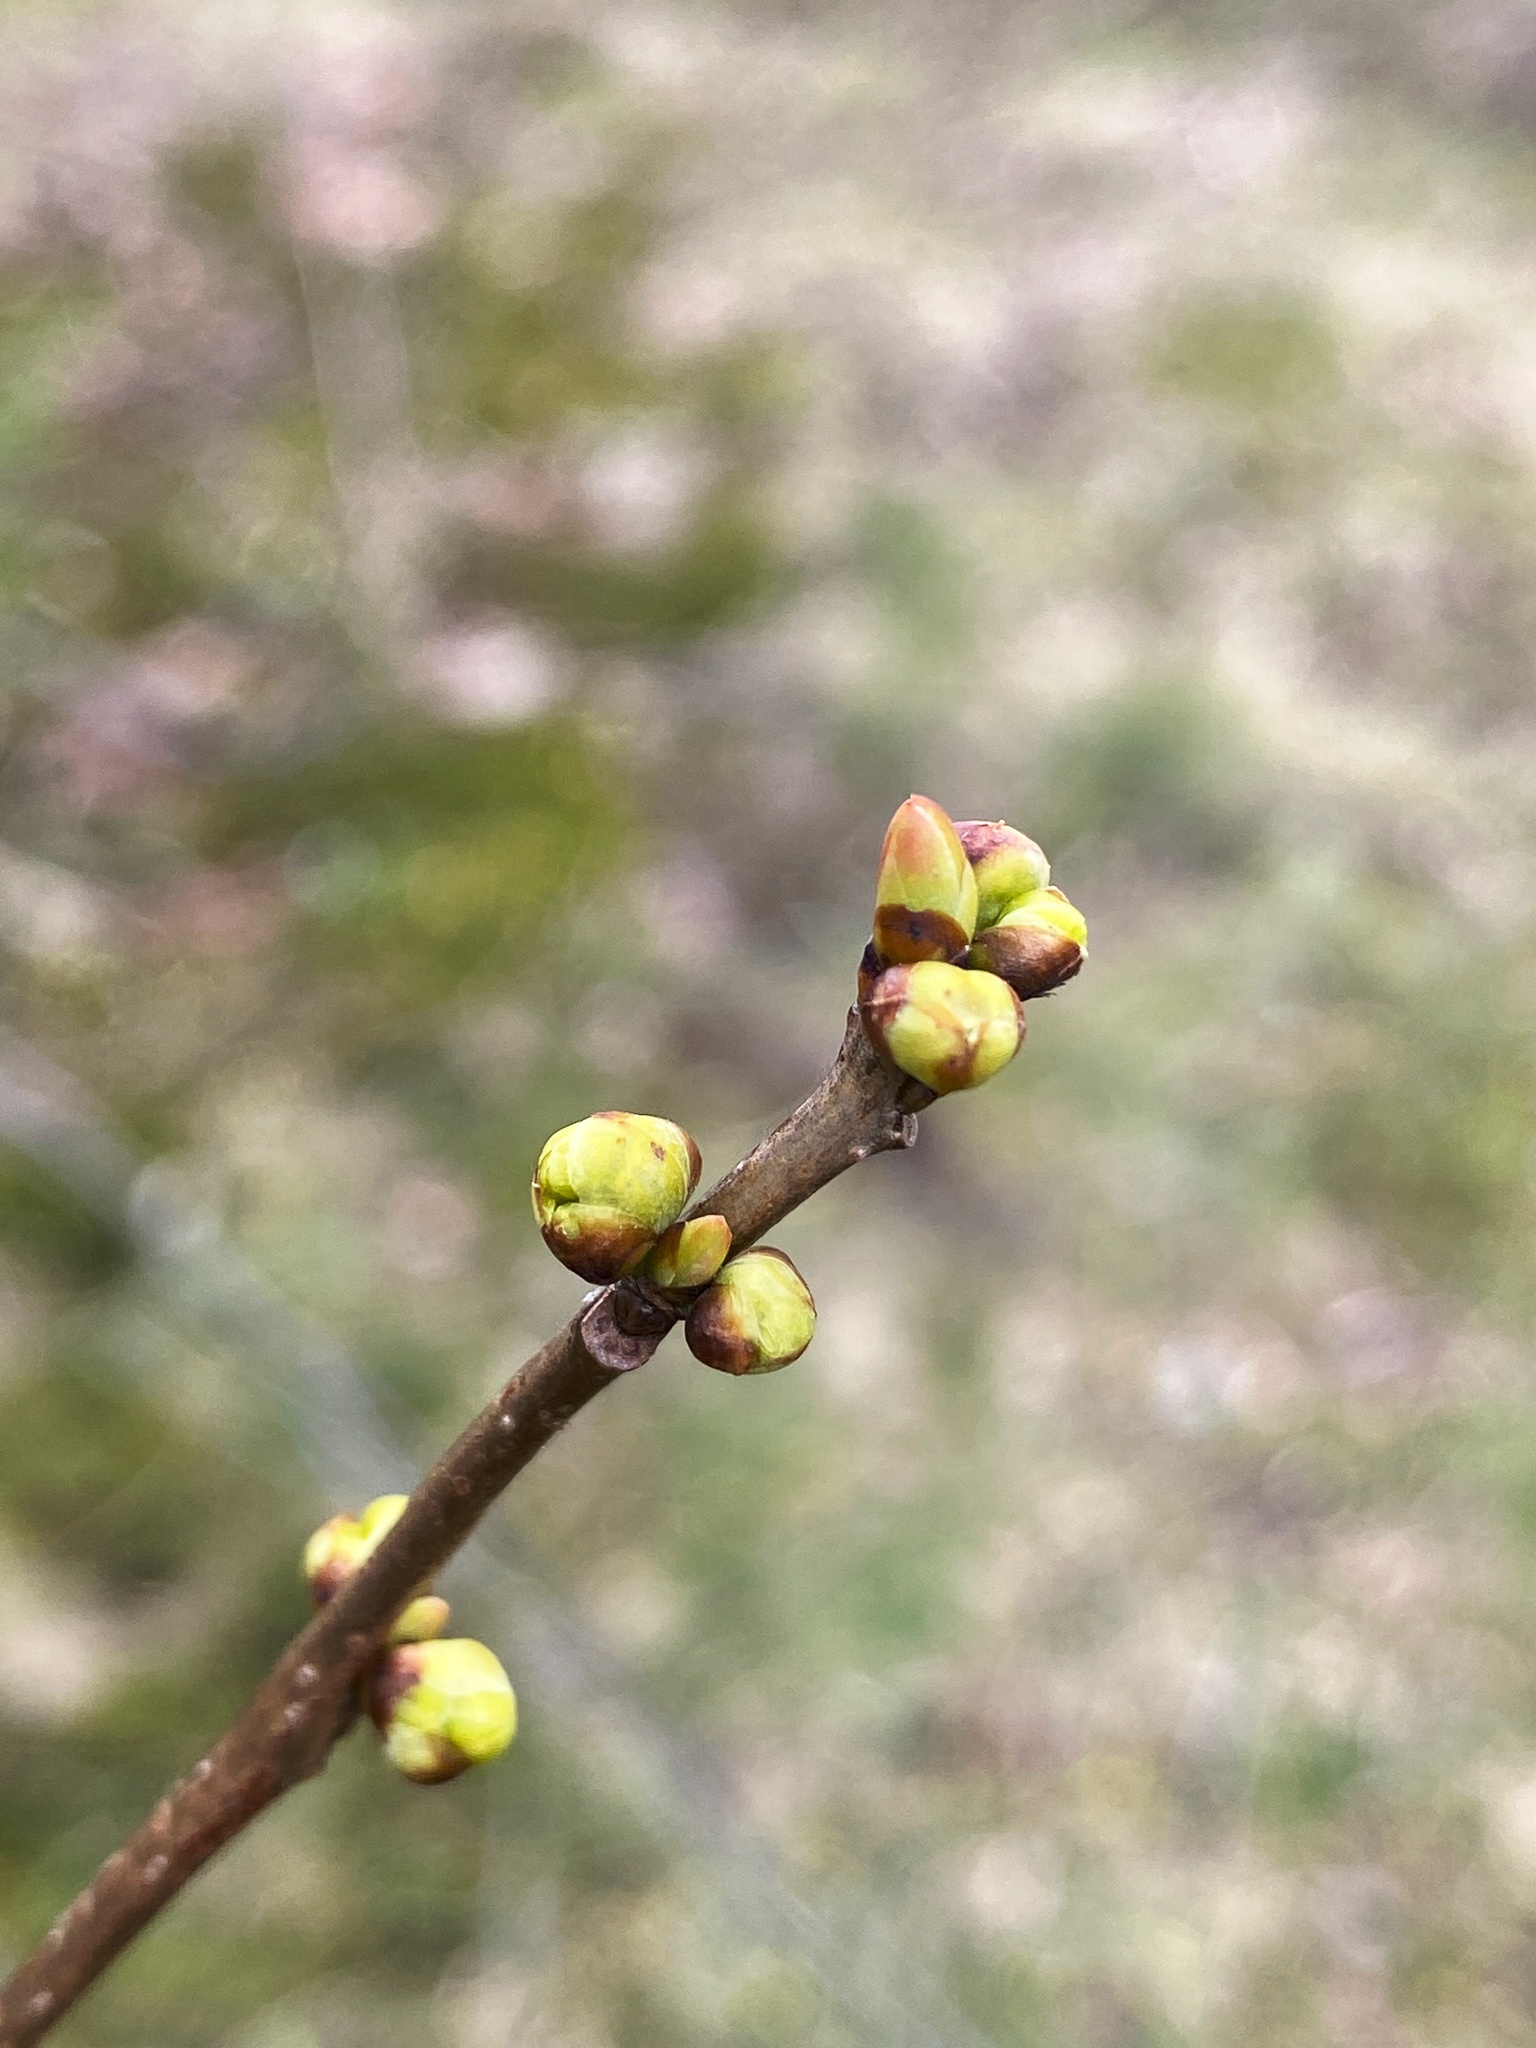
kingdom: Plantae
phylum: Tracheophyta
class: Magnoliopsida
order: Laurales
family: Lauraceae
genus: Lindera
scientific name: Lindera benzoin
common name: Spicebush
